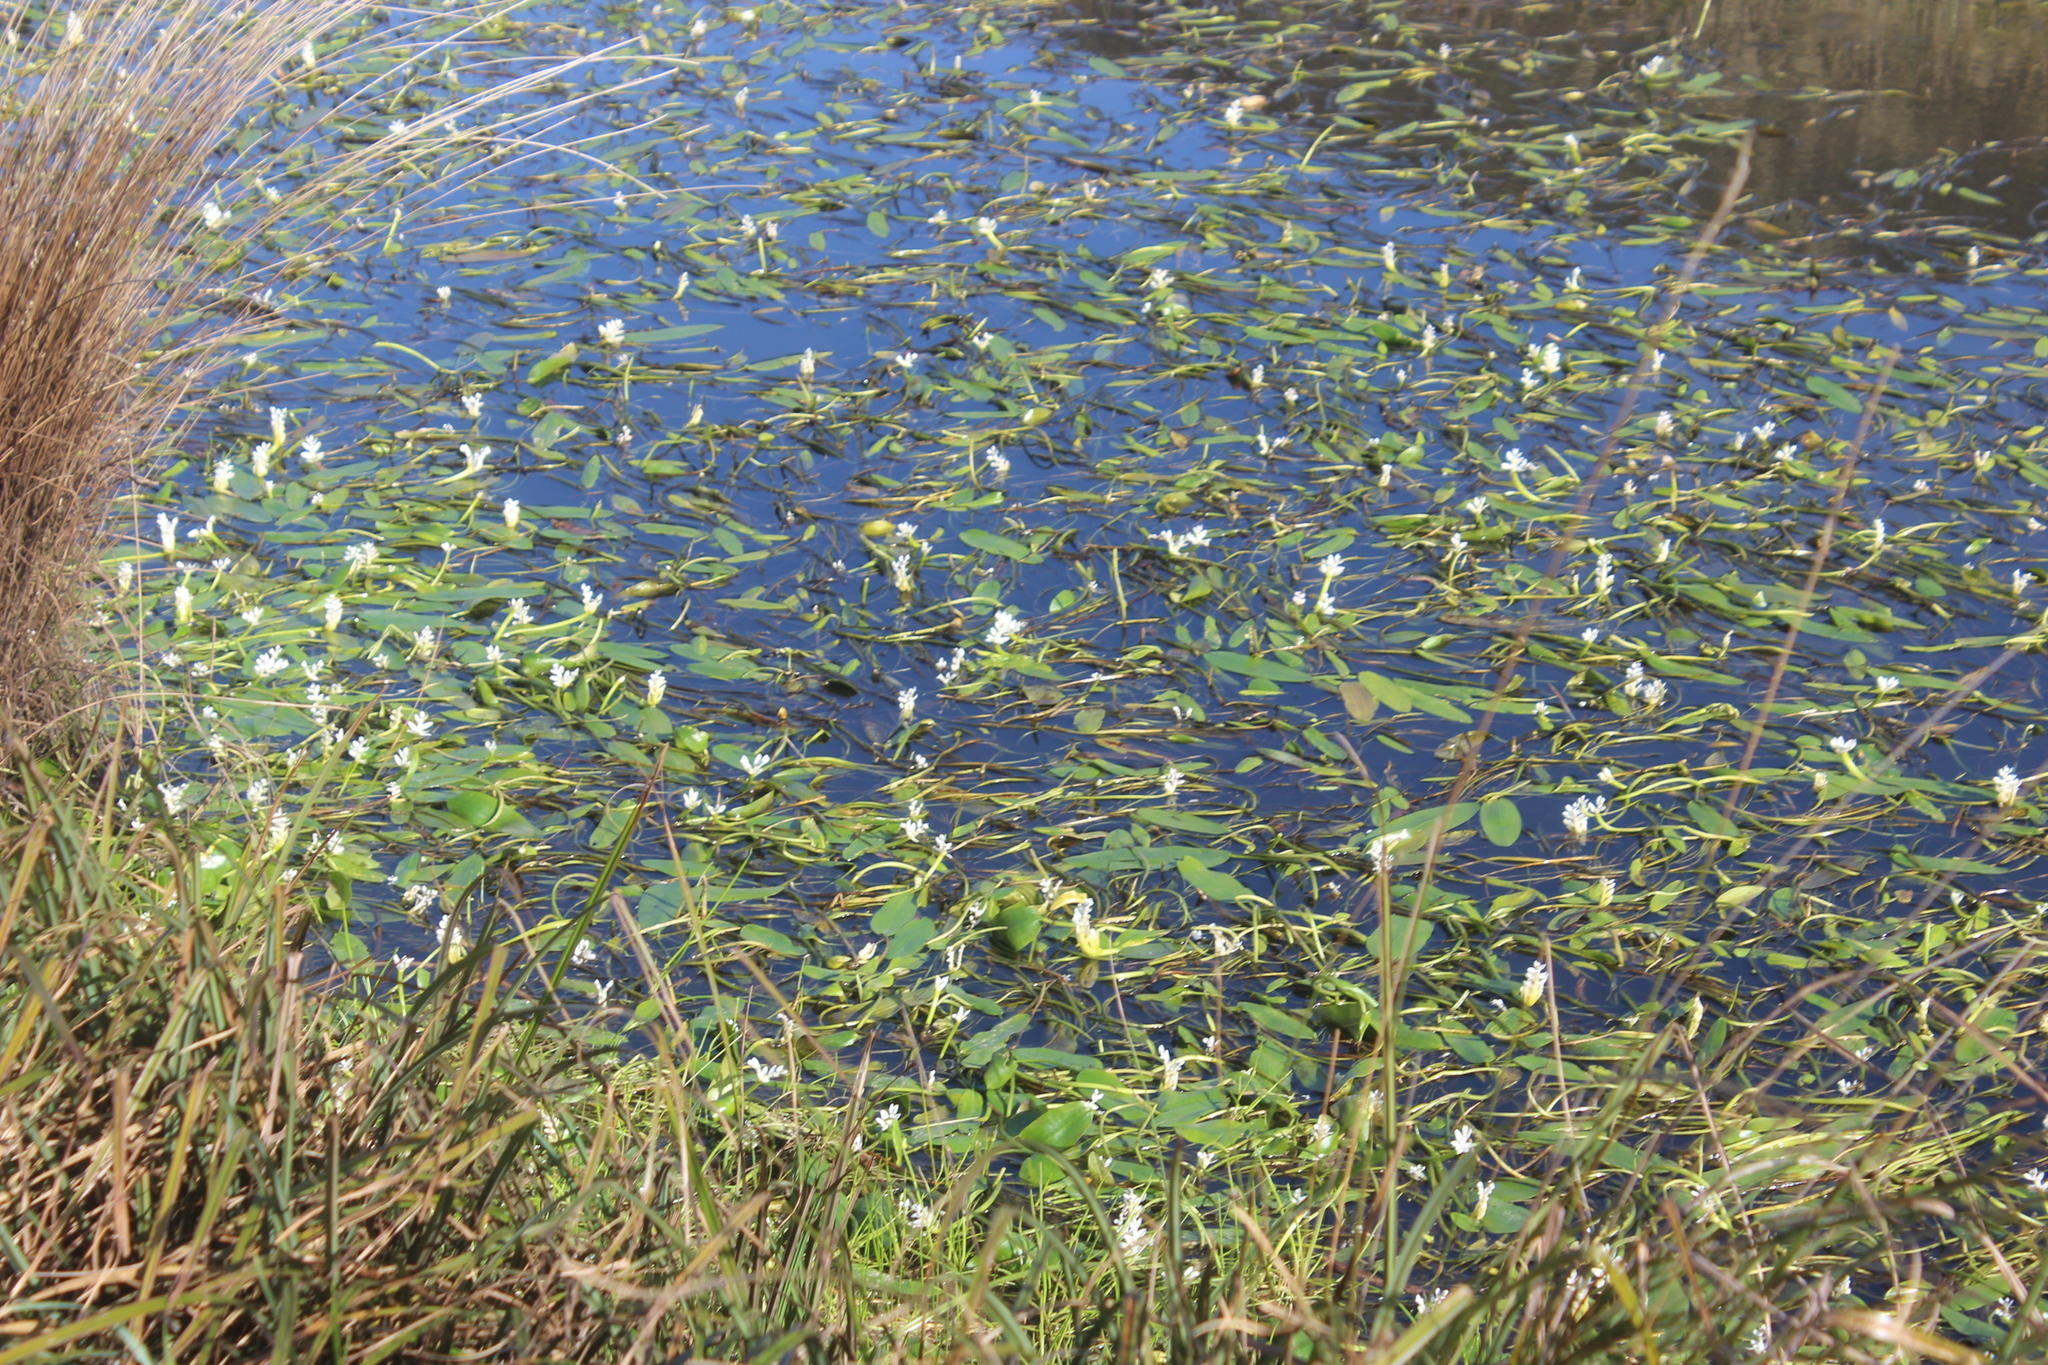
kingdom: Plantae
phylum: Tracheophyta
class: Liliopsida
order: Alismatales
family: Aponogetonaceae
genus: Aponogeton
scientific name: Aponogeton distachyos
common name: Cape-pondweed
